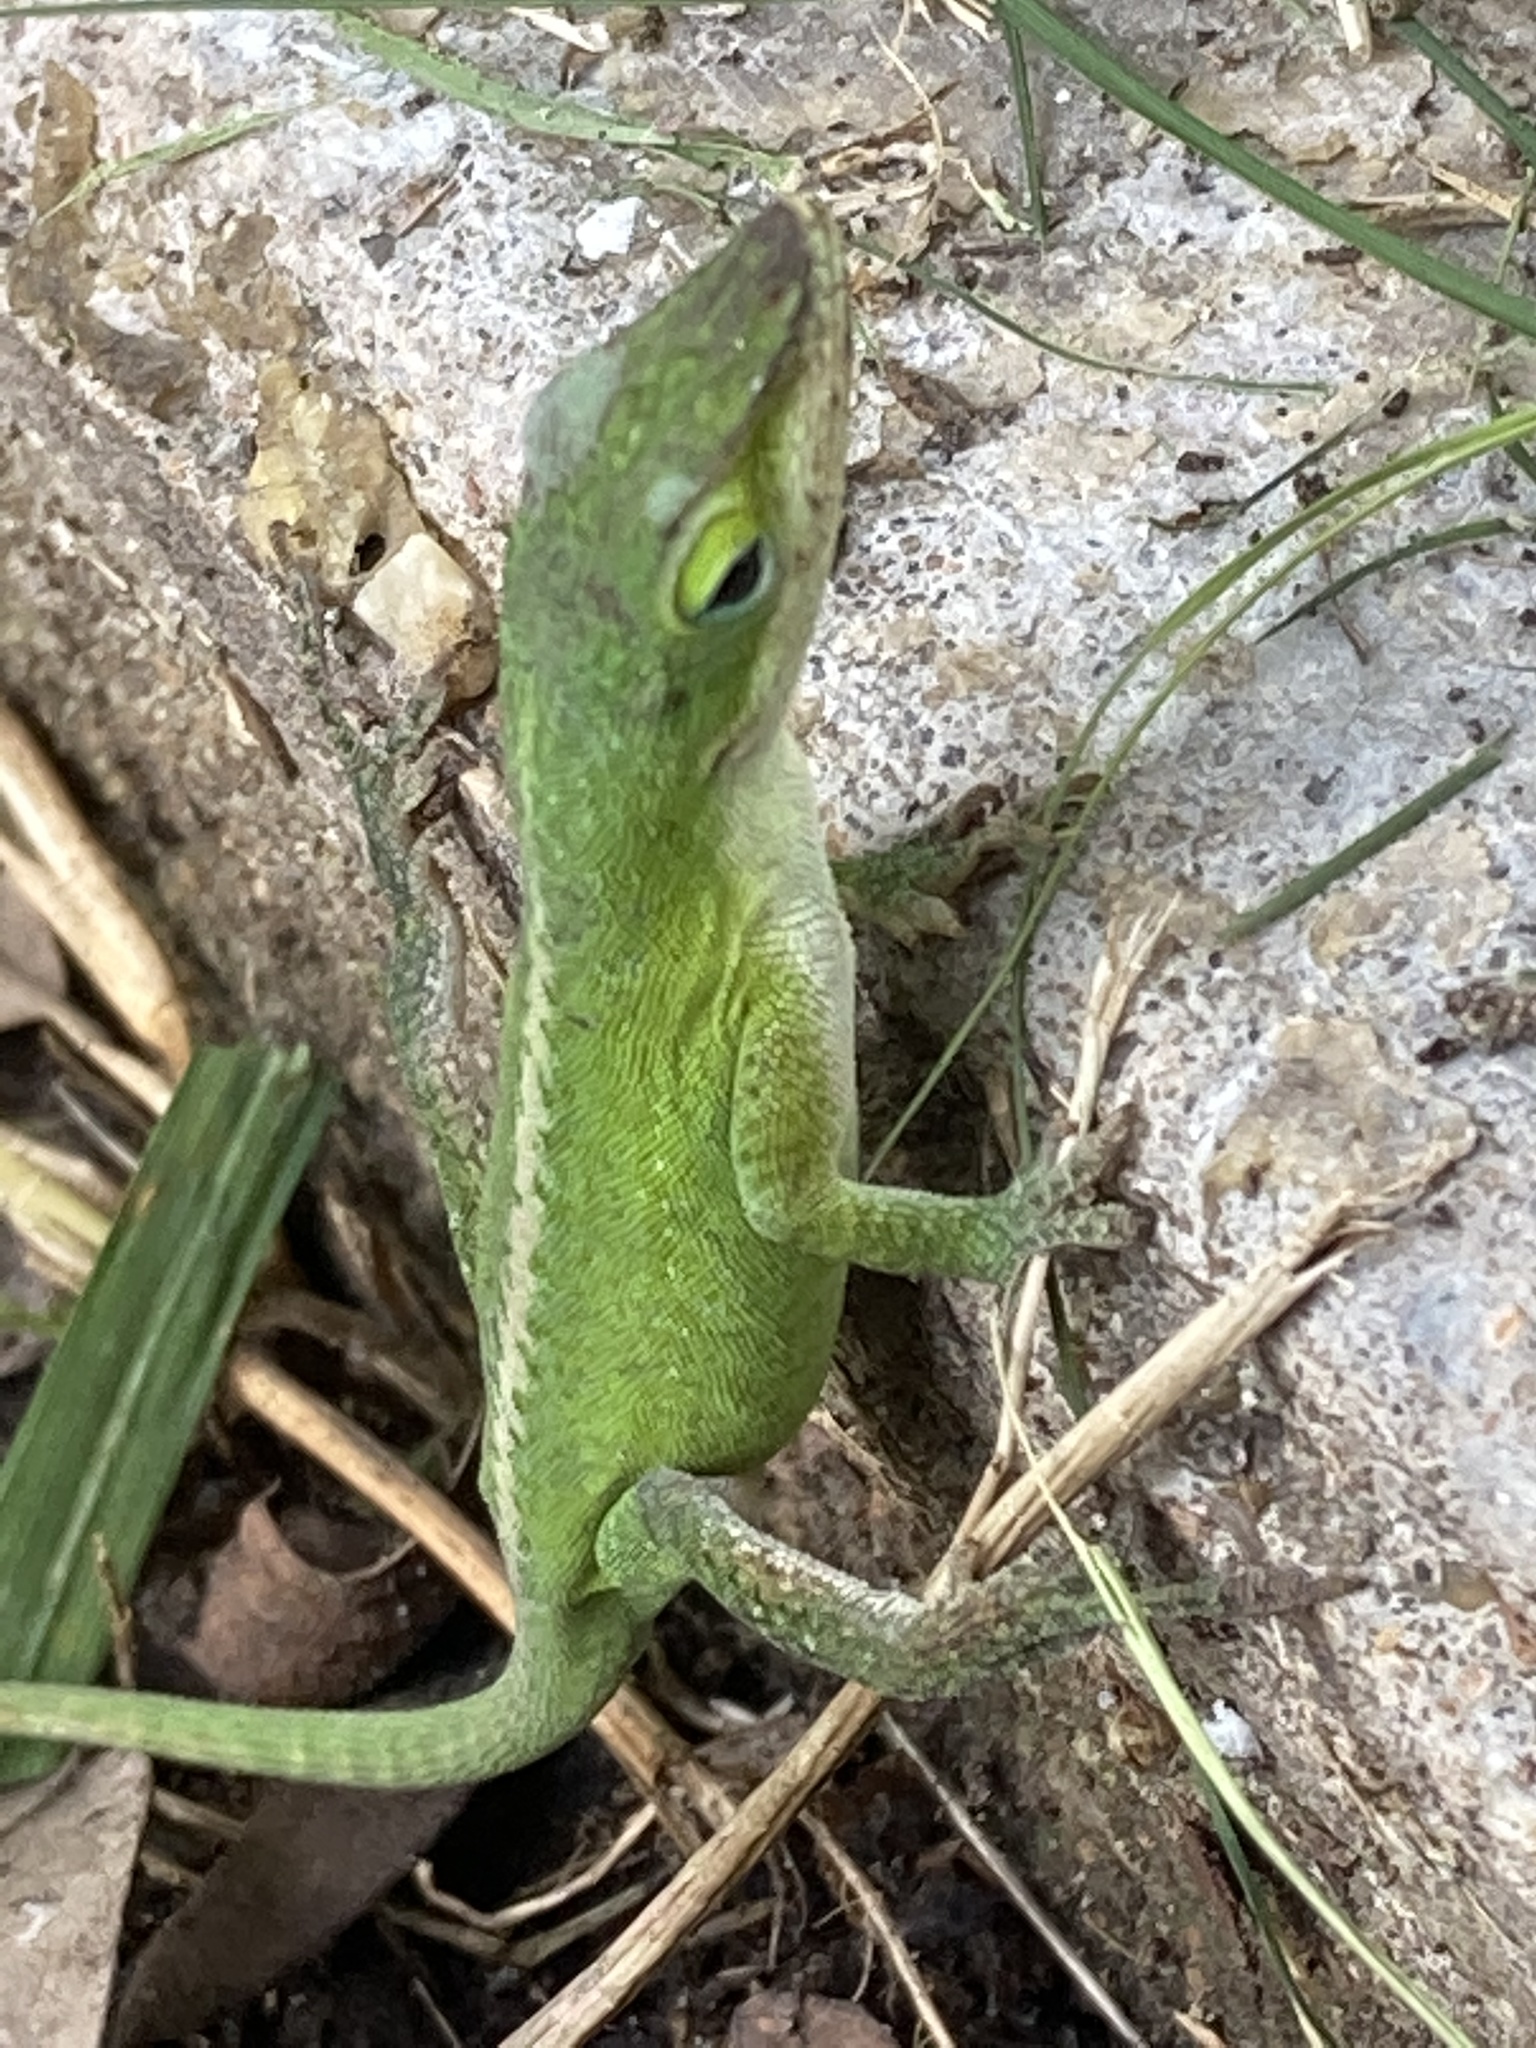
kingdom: Animalia
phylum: Chordata
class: Squamata
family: Dactyloidae
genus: Anolis
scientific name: Anolis carolinensis
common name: Green anole
